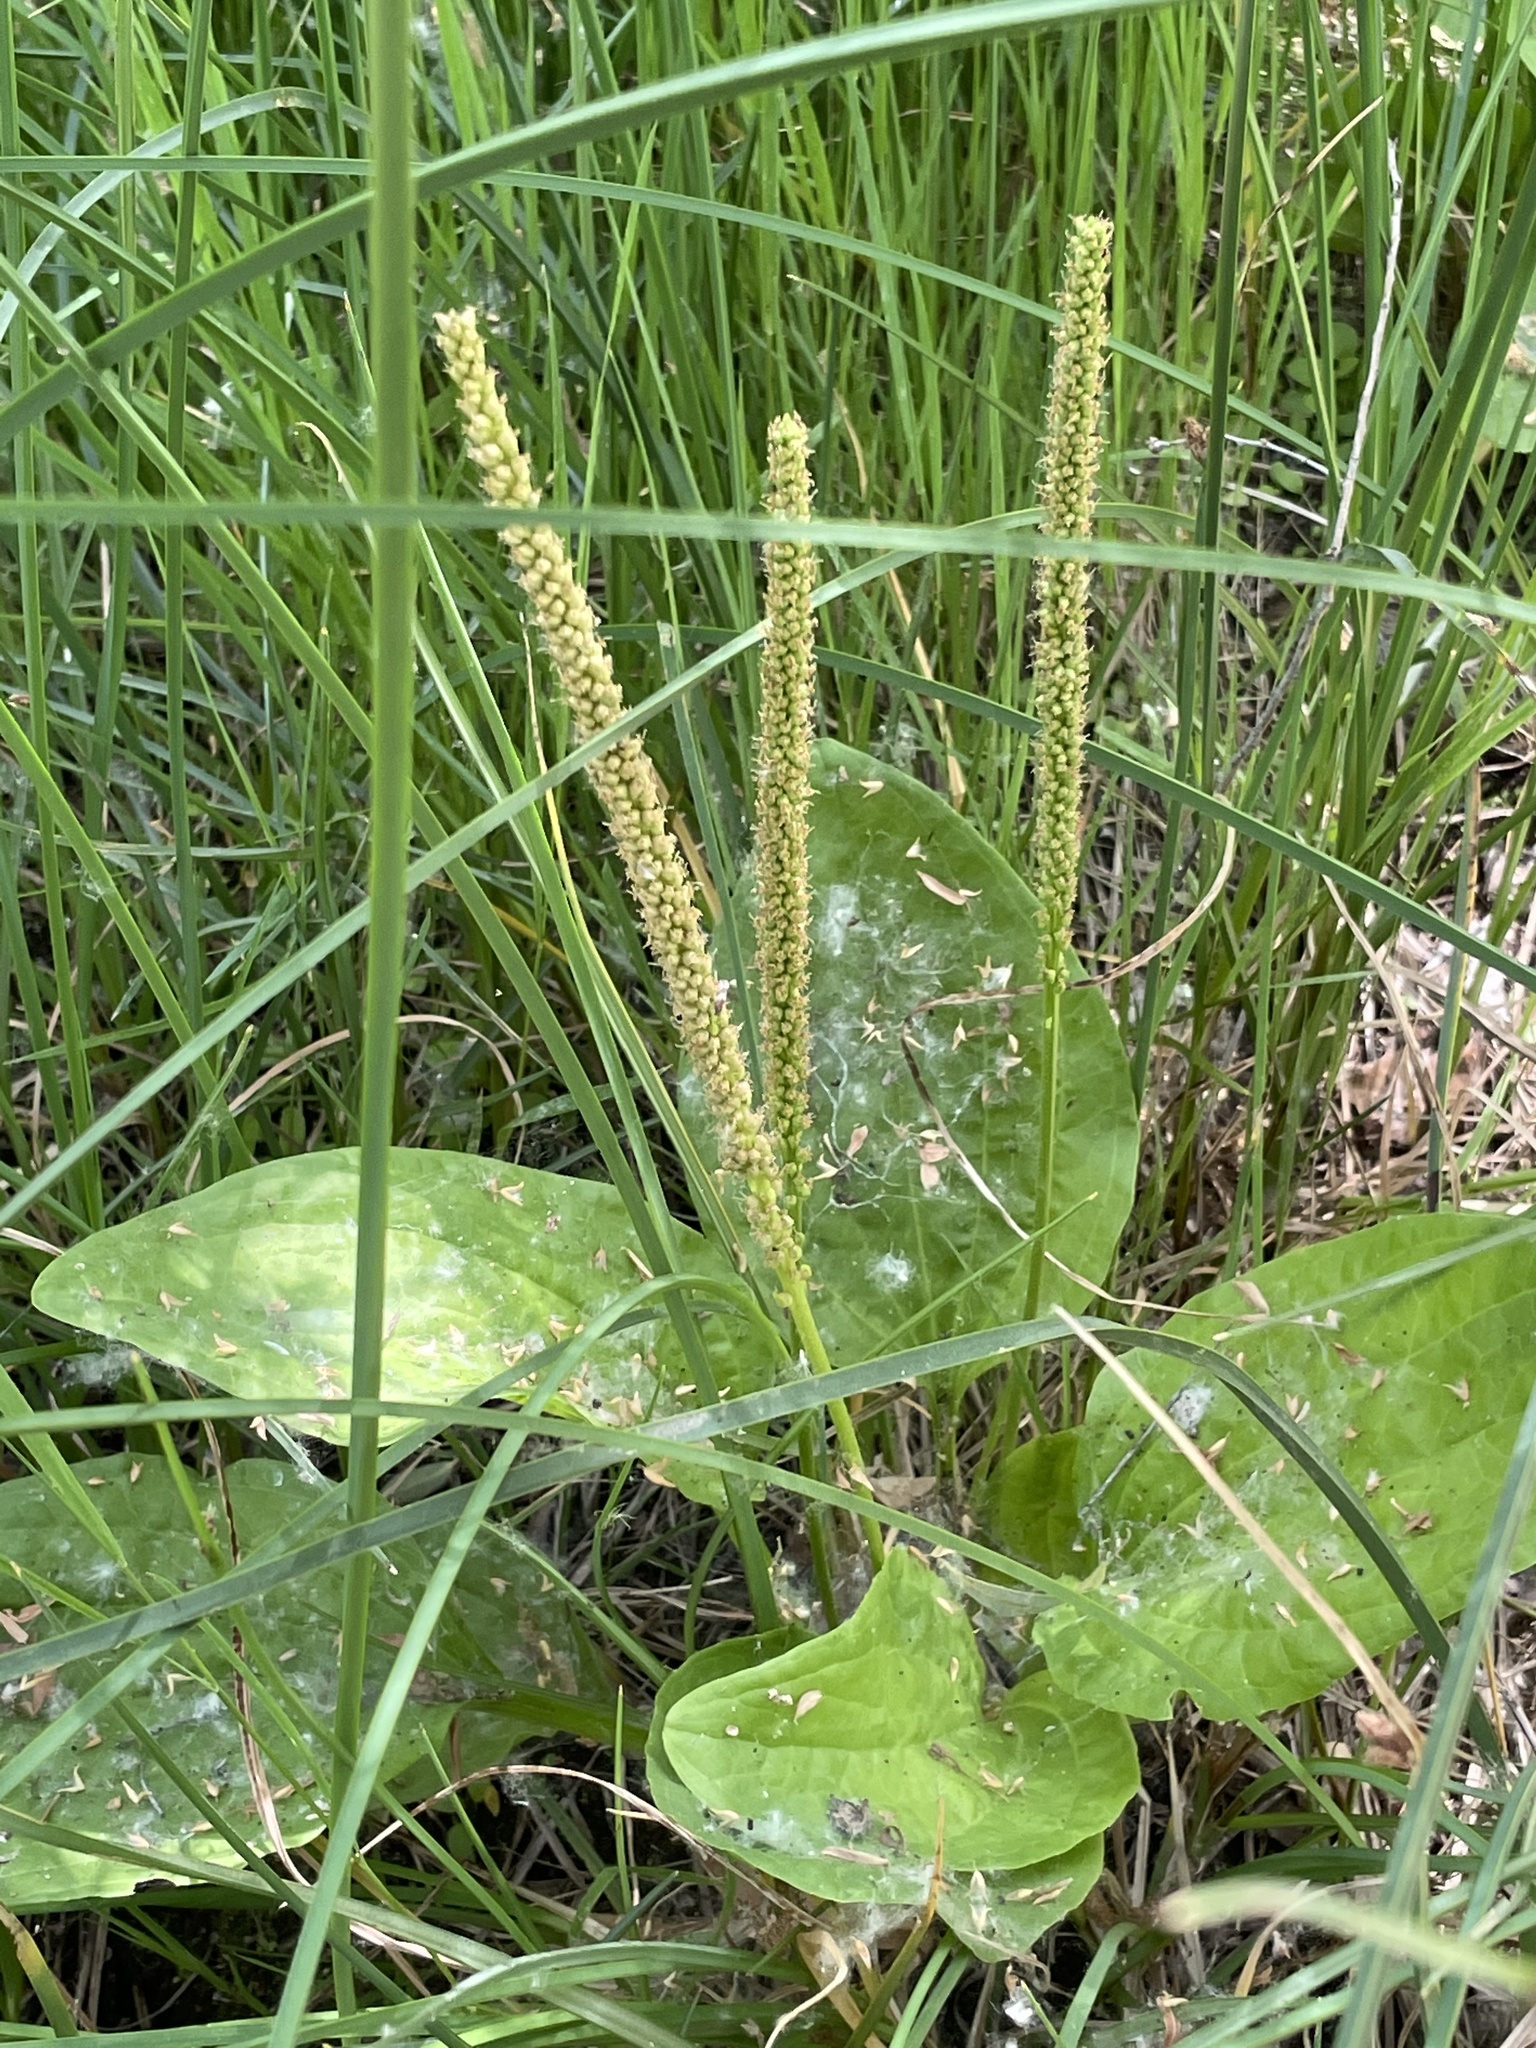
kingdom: Plantae
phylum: Tracheophyta
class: Magnoliopsida
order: Lamiales
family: Plantaginaceae
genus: Plantago
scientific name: Plantago major
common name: Common plantain
